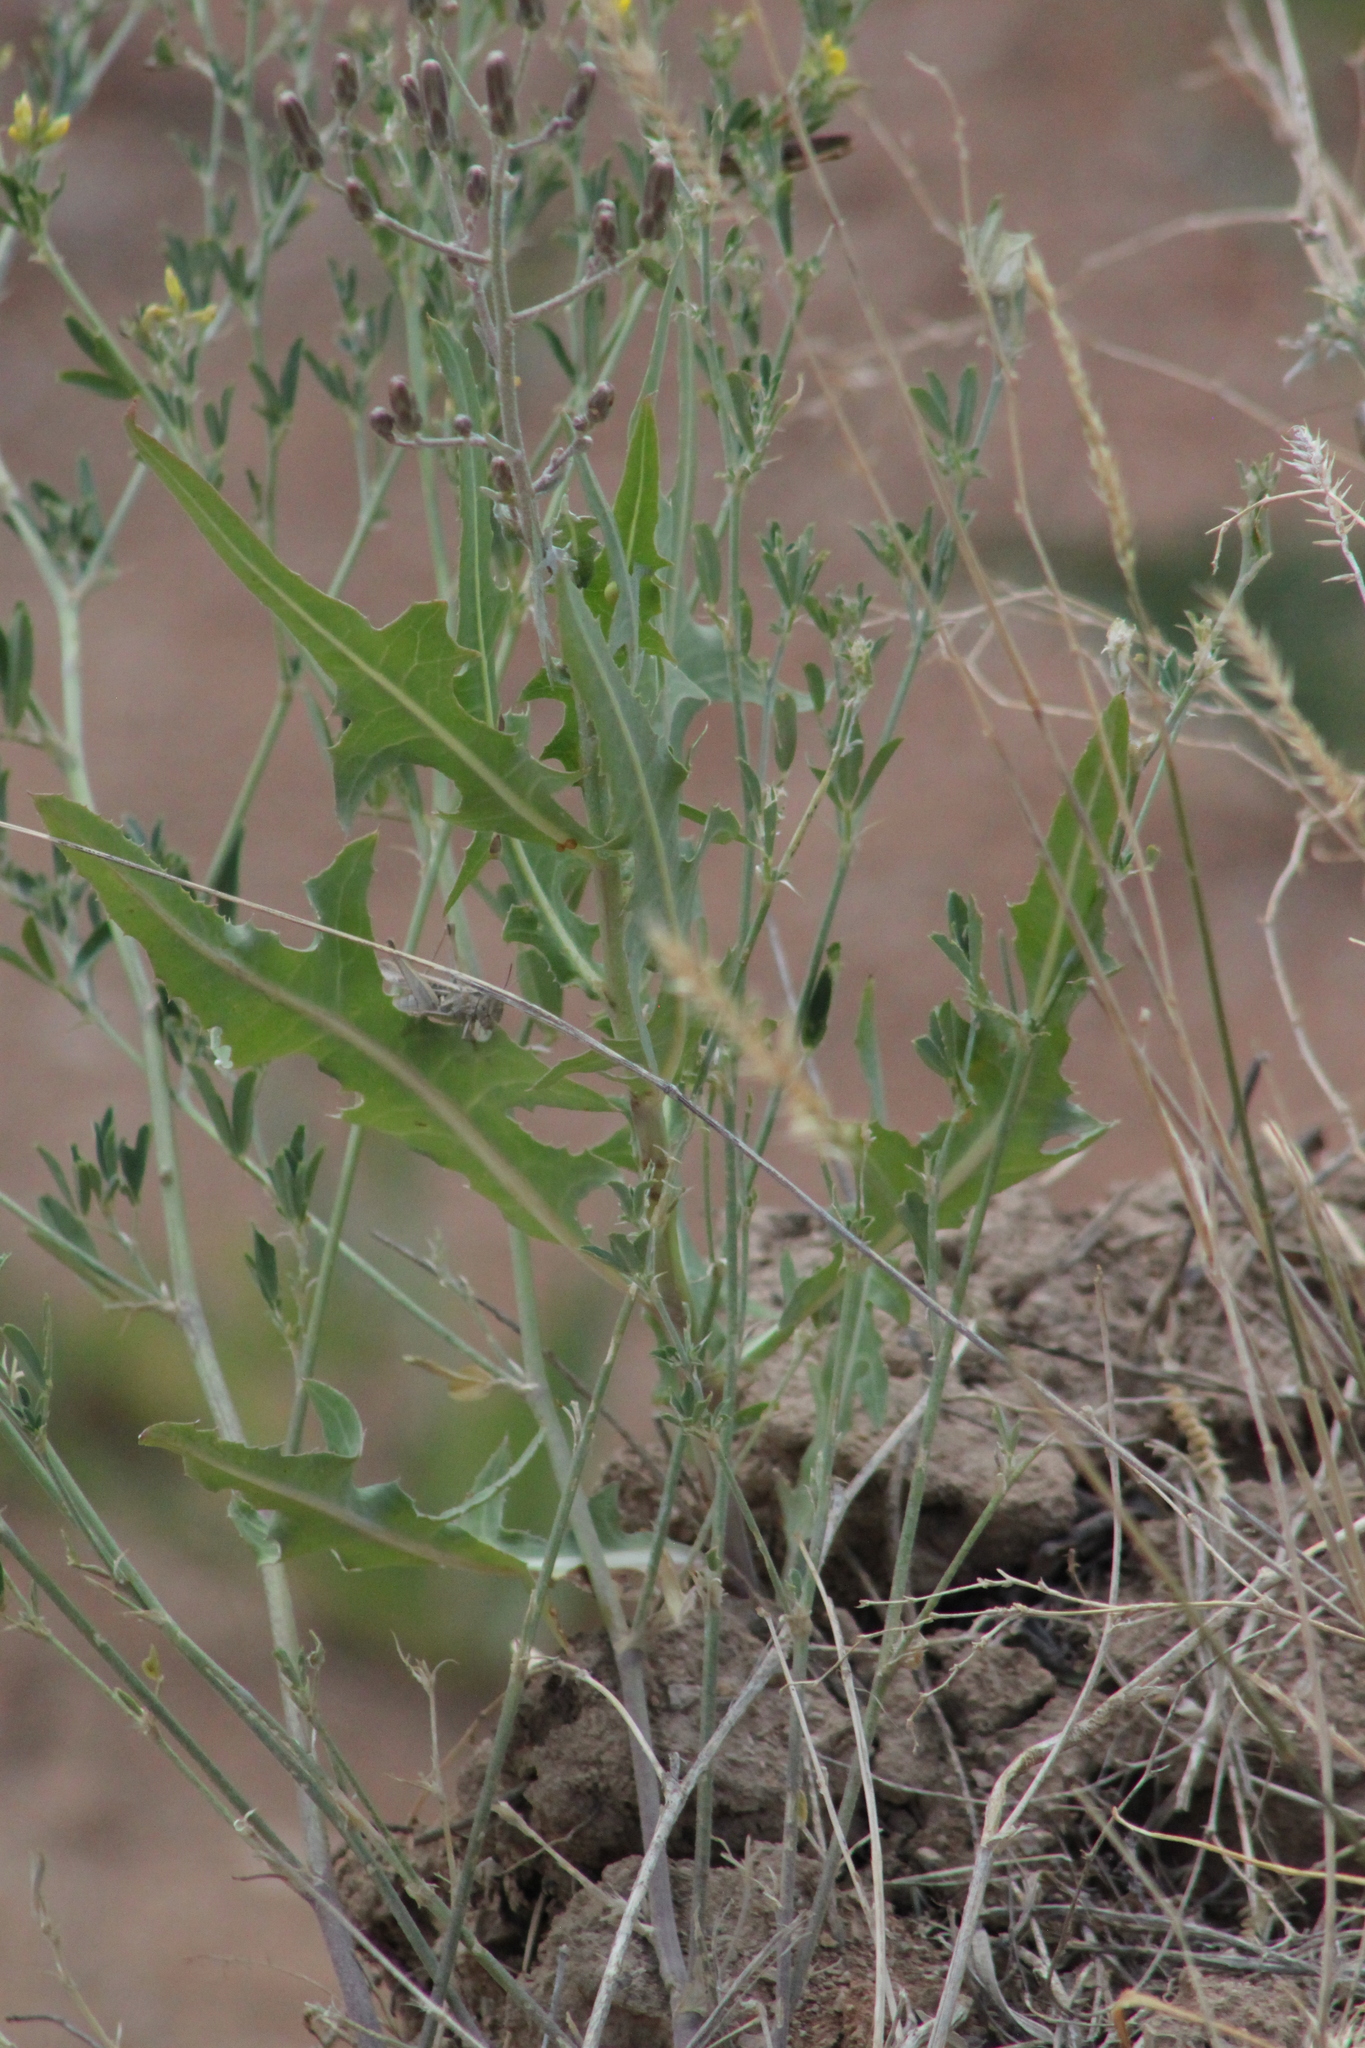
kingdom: Plantae
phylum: Tracheophyta
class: Magnoliopsida
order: Asterales
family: Asteraceae
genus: Lactuca
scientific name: Lactuca tatarica
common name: Blue lettuce
